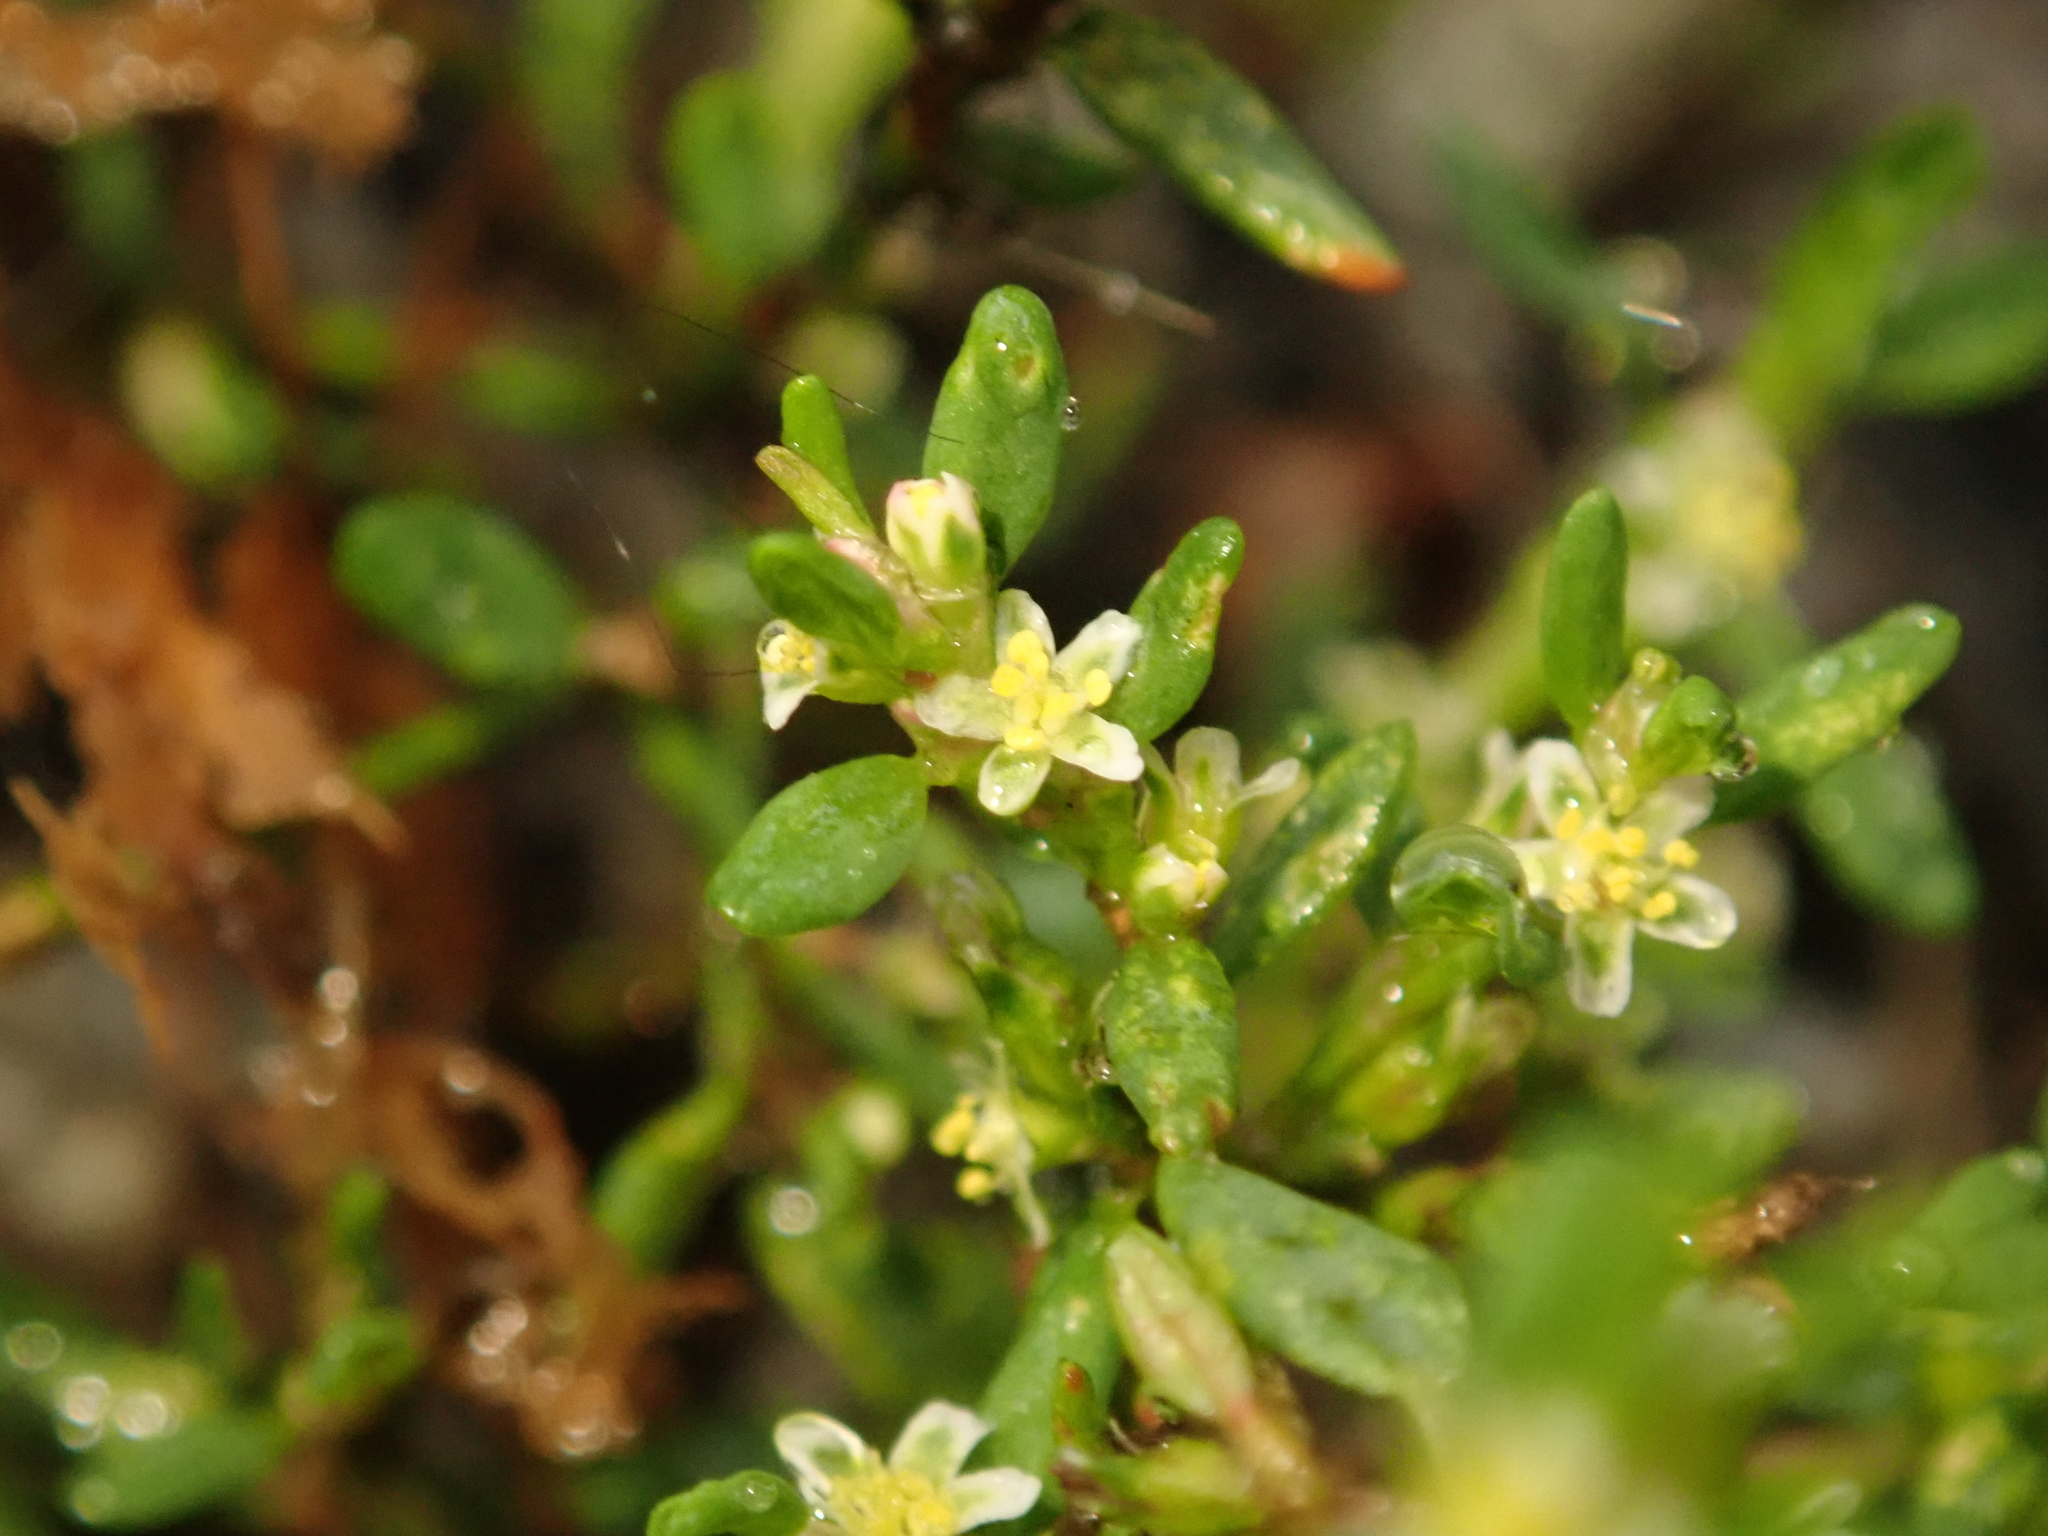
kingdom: Plantae
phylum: Tracheophyta
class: Magnoliopsida
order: Caryophyllales
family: Polygonaceae
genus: Polygonum
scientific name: Polygonum aviculare
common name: Prostrate knotweed
